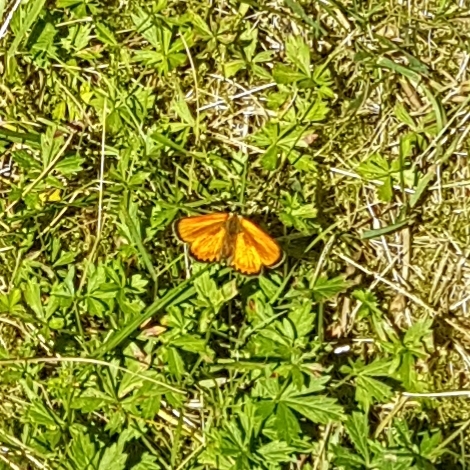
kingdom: Animalia
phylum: Arthropoda
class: Insecta
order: Lepidoptera
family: Lycaenidae
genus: Lycaena
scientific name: Lycaena virgaureae
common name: Scarce copper
